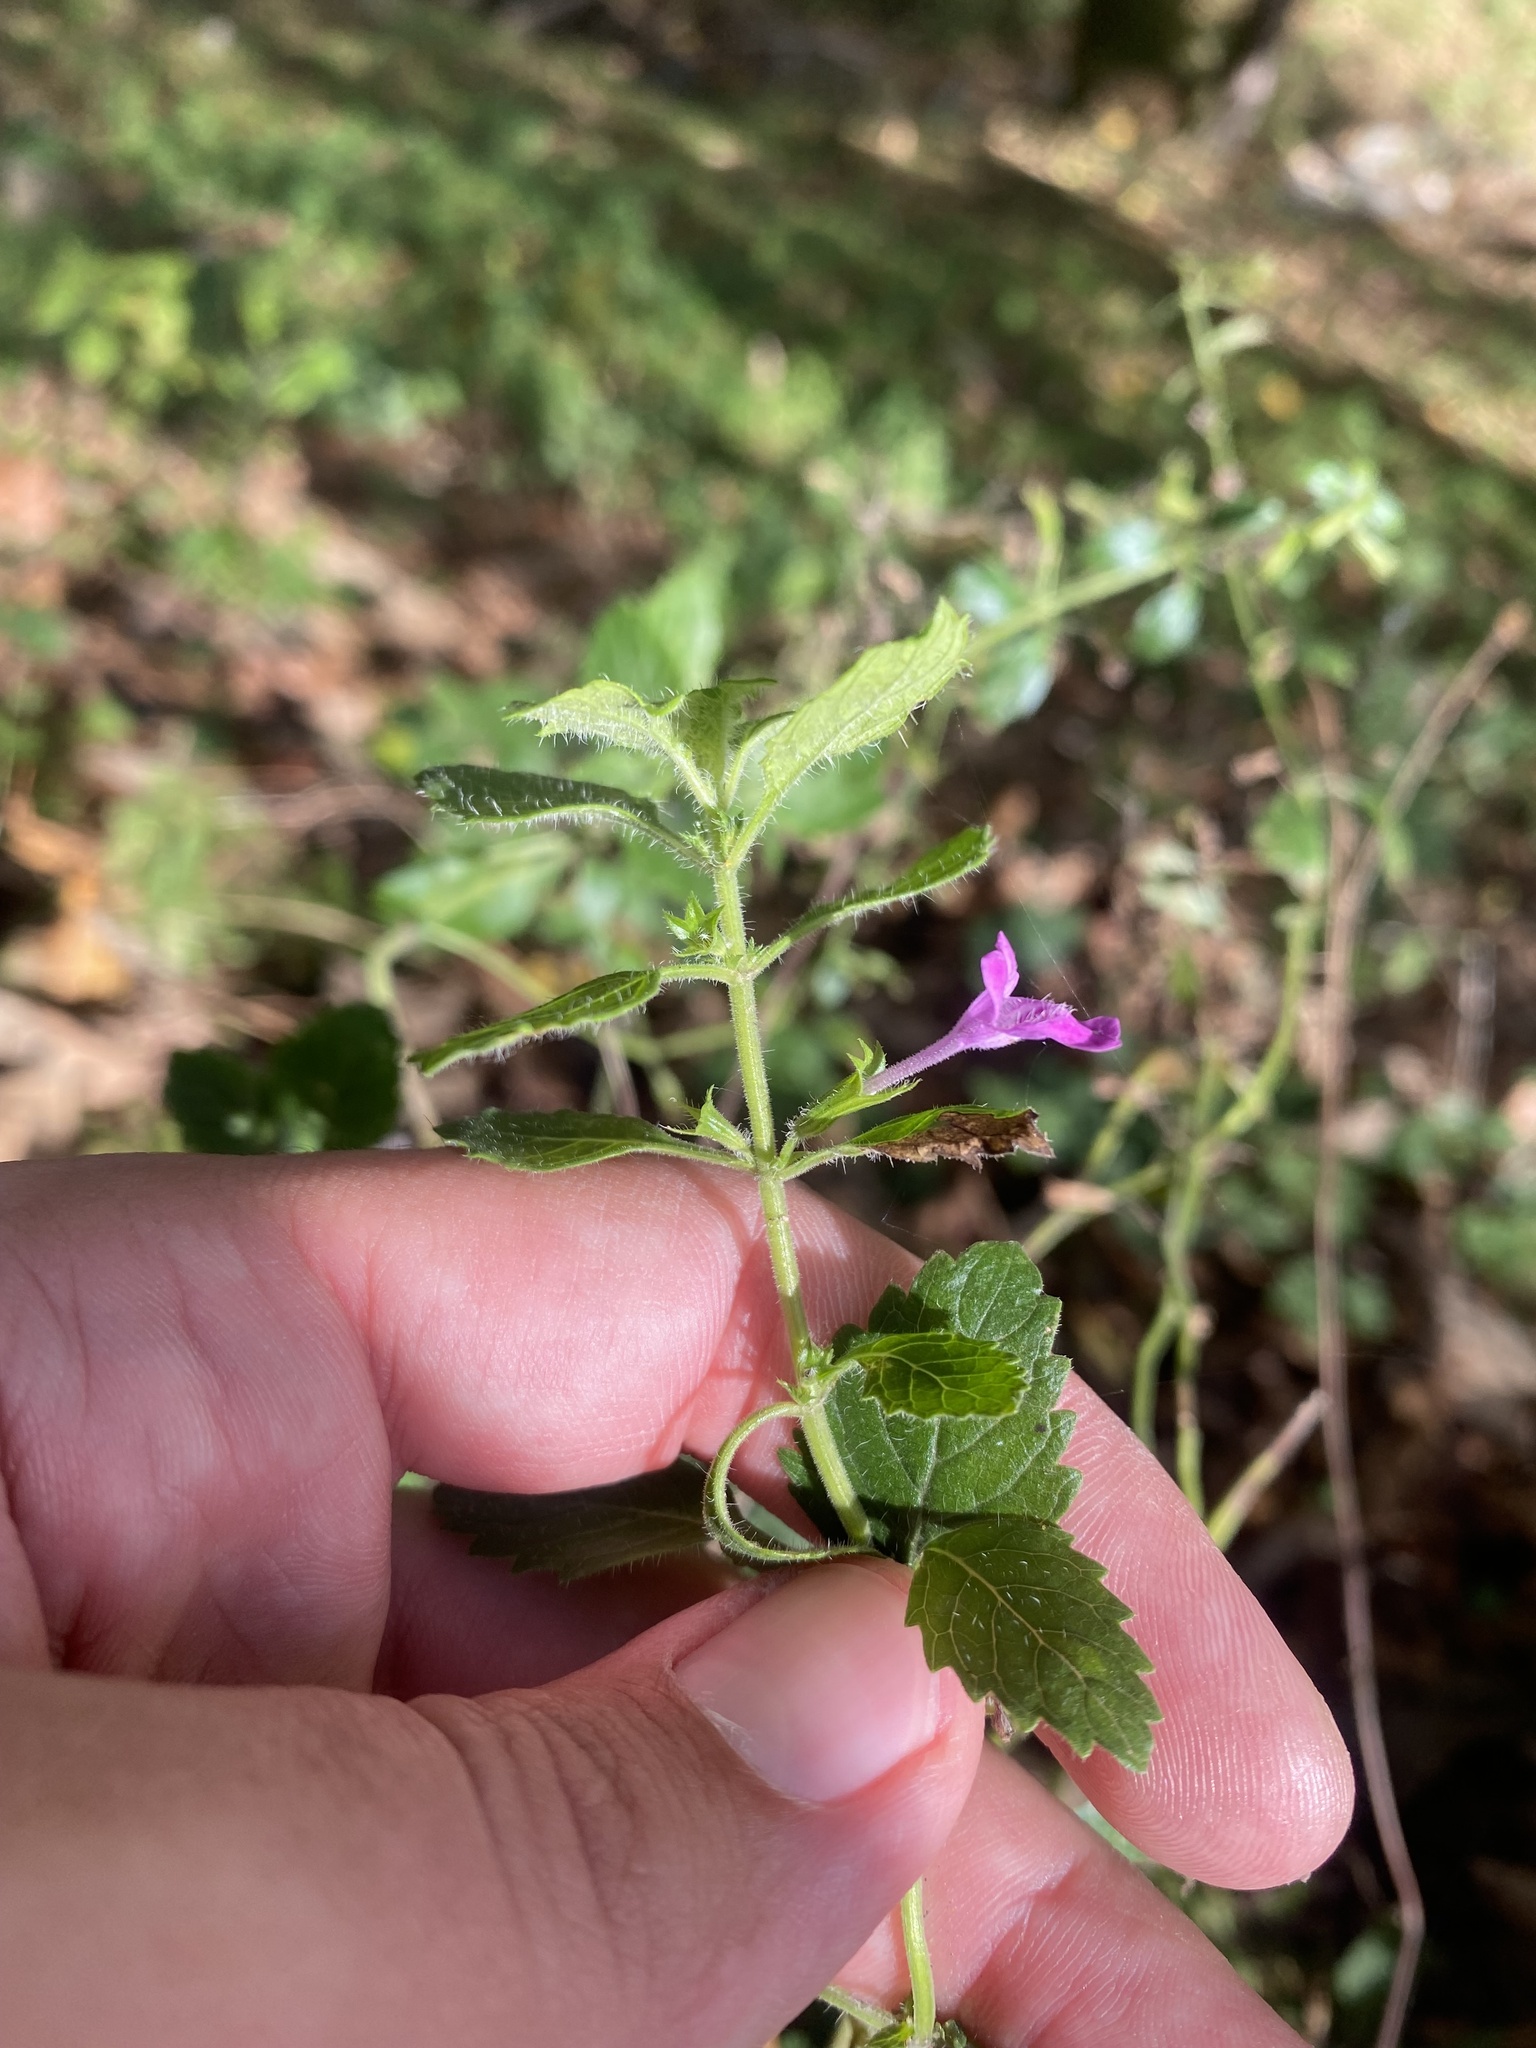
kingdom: Plantae
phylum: Tracheophyta
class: Magnoliopsida
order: Lamiales
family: Lamiaceae
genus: Clinopodium
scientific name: Clinopodium grandiflorum
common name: Greater calamint
